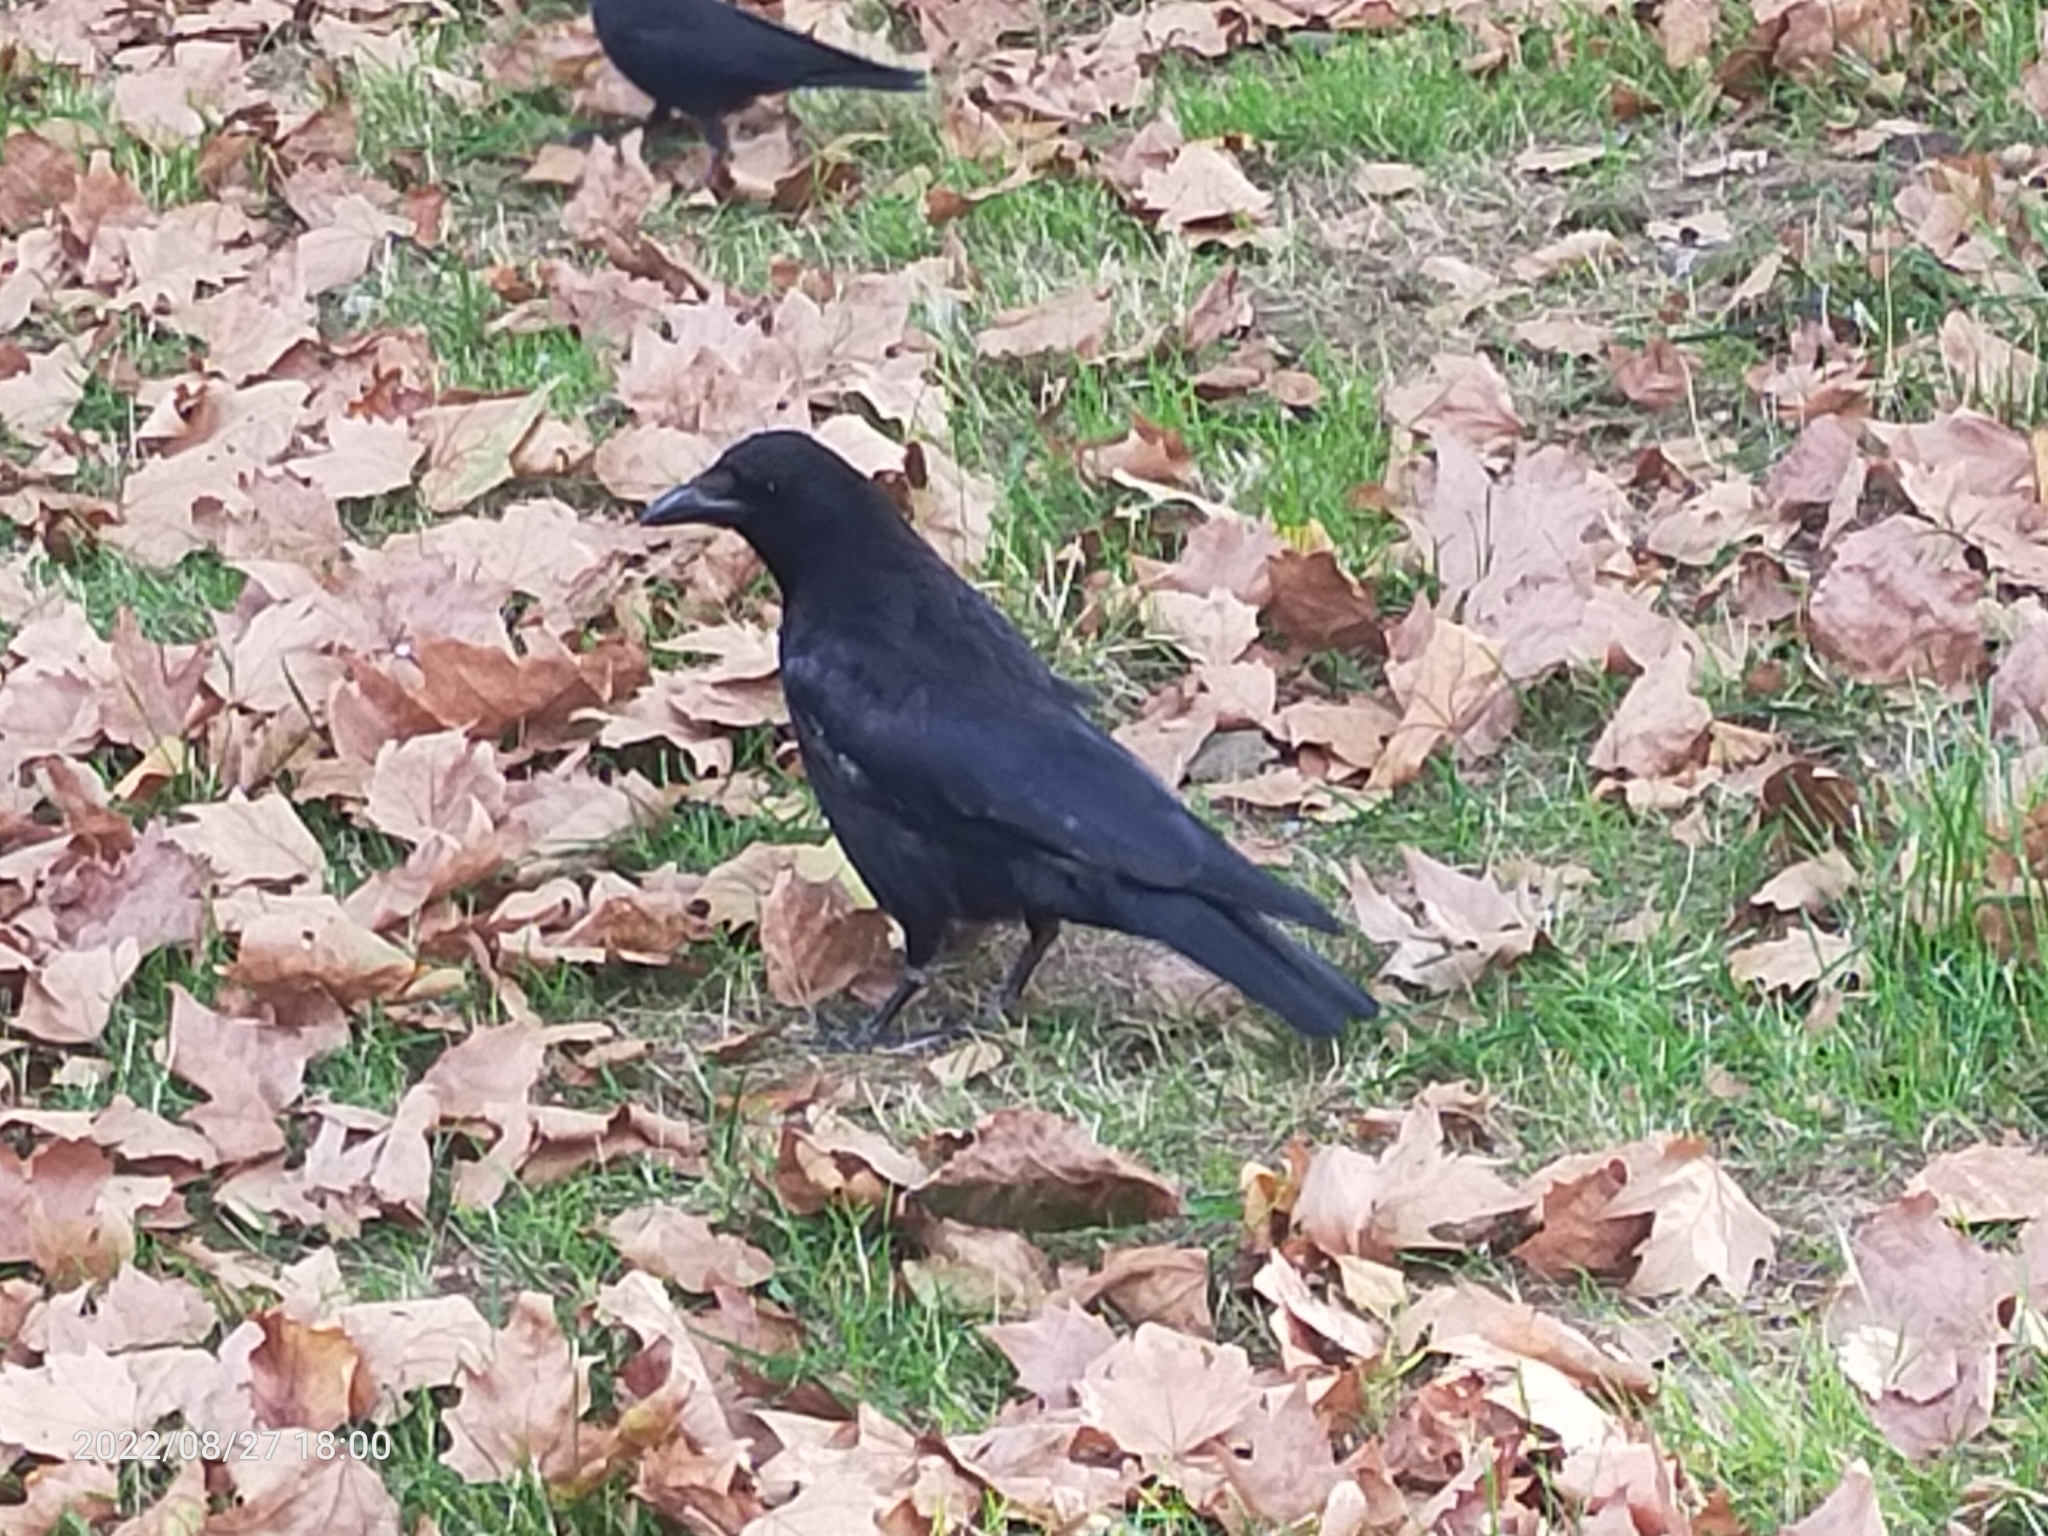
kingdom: Animalia
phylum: Chordata
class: Aves
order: Passeriformes
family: Corvidae
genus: Corvus
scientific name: Corvus corone
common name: Carrion crow
